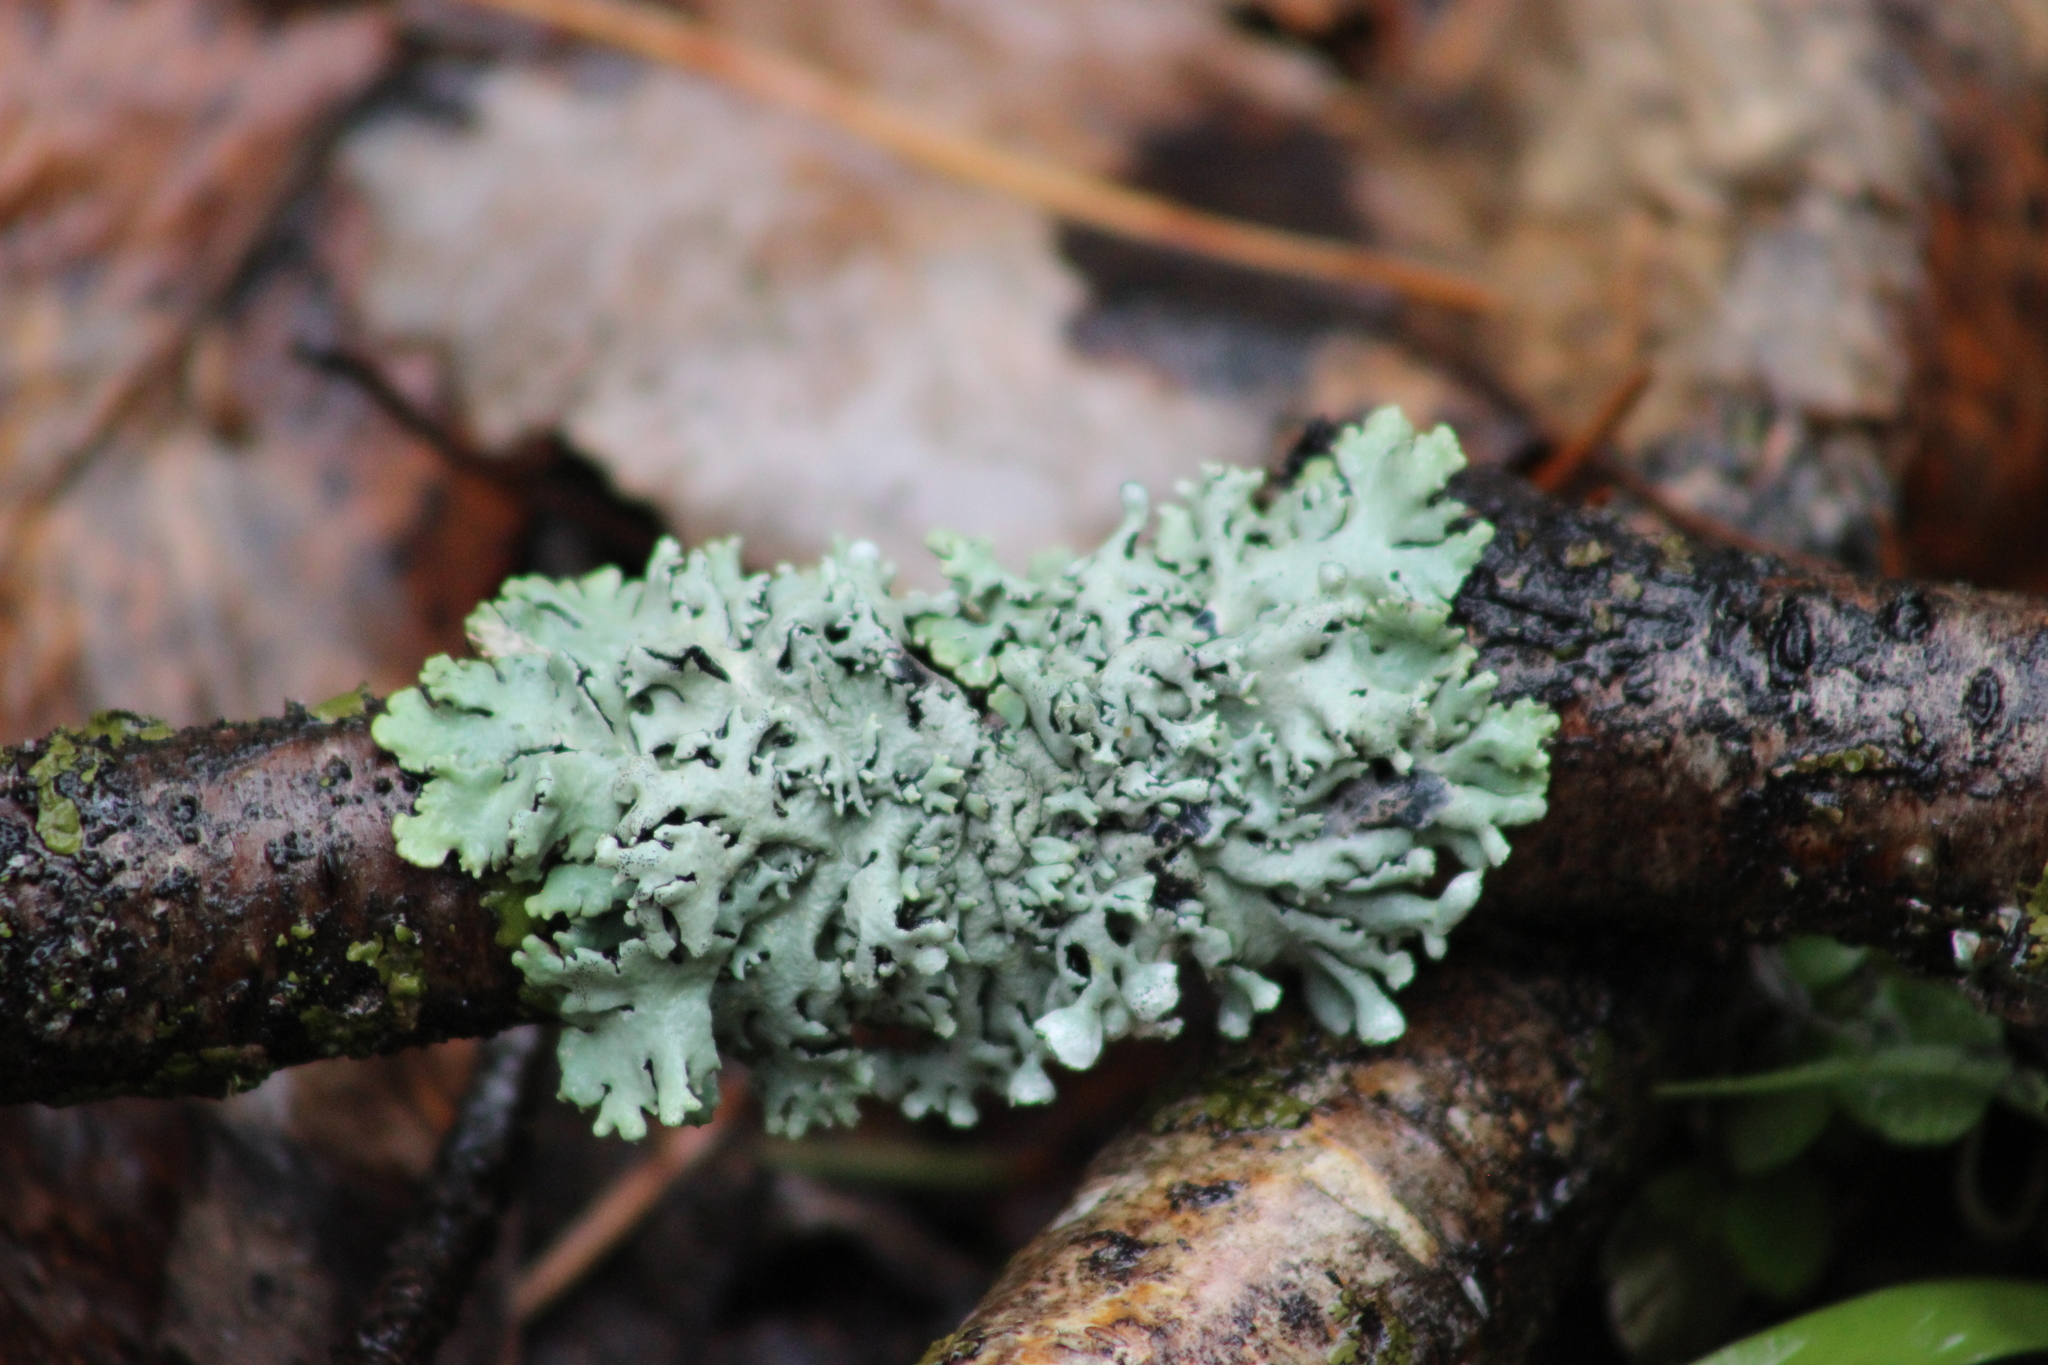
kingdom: Fungi
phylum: Ascomycota
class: Lecanoromycetes
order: Lecanorales
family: Parmeliaceae
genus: Hypogymnia
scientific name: Hypogymnia physodes
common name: Dark crottle
